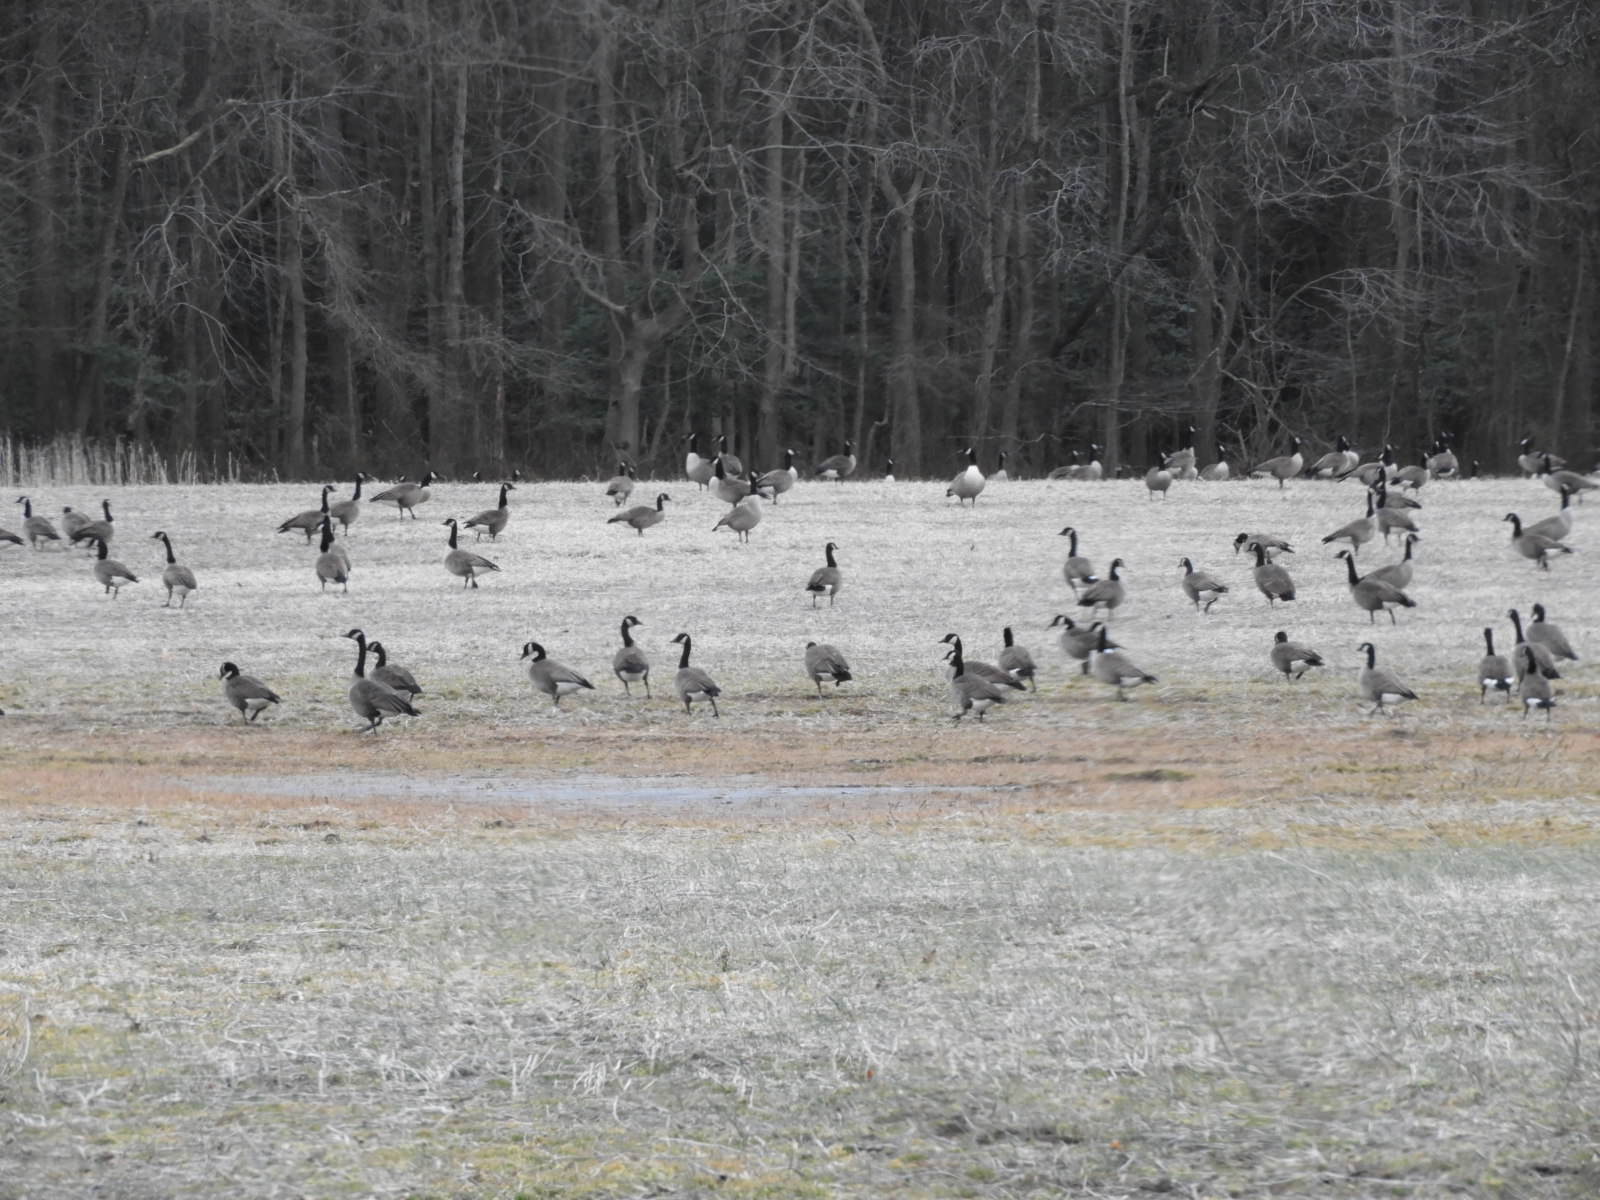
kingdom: Animalia
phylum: Chordata
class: Aves
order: Anseriformes
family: Anatidae
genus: Branta
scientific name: Branta canadensis
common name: Canada goose
